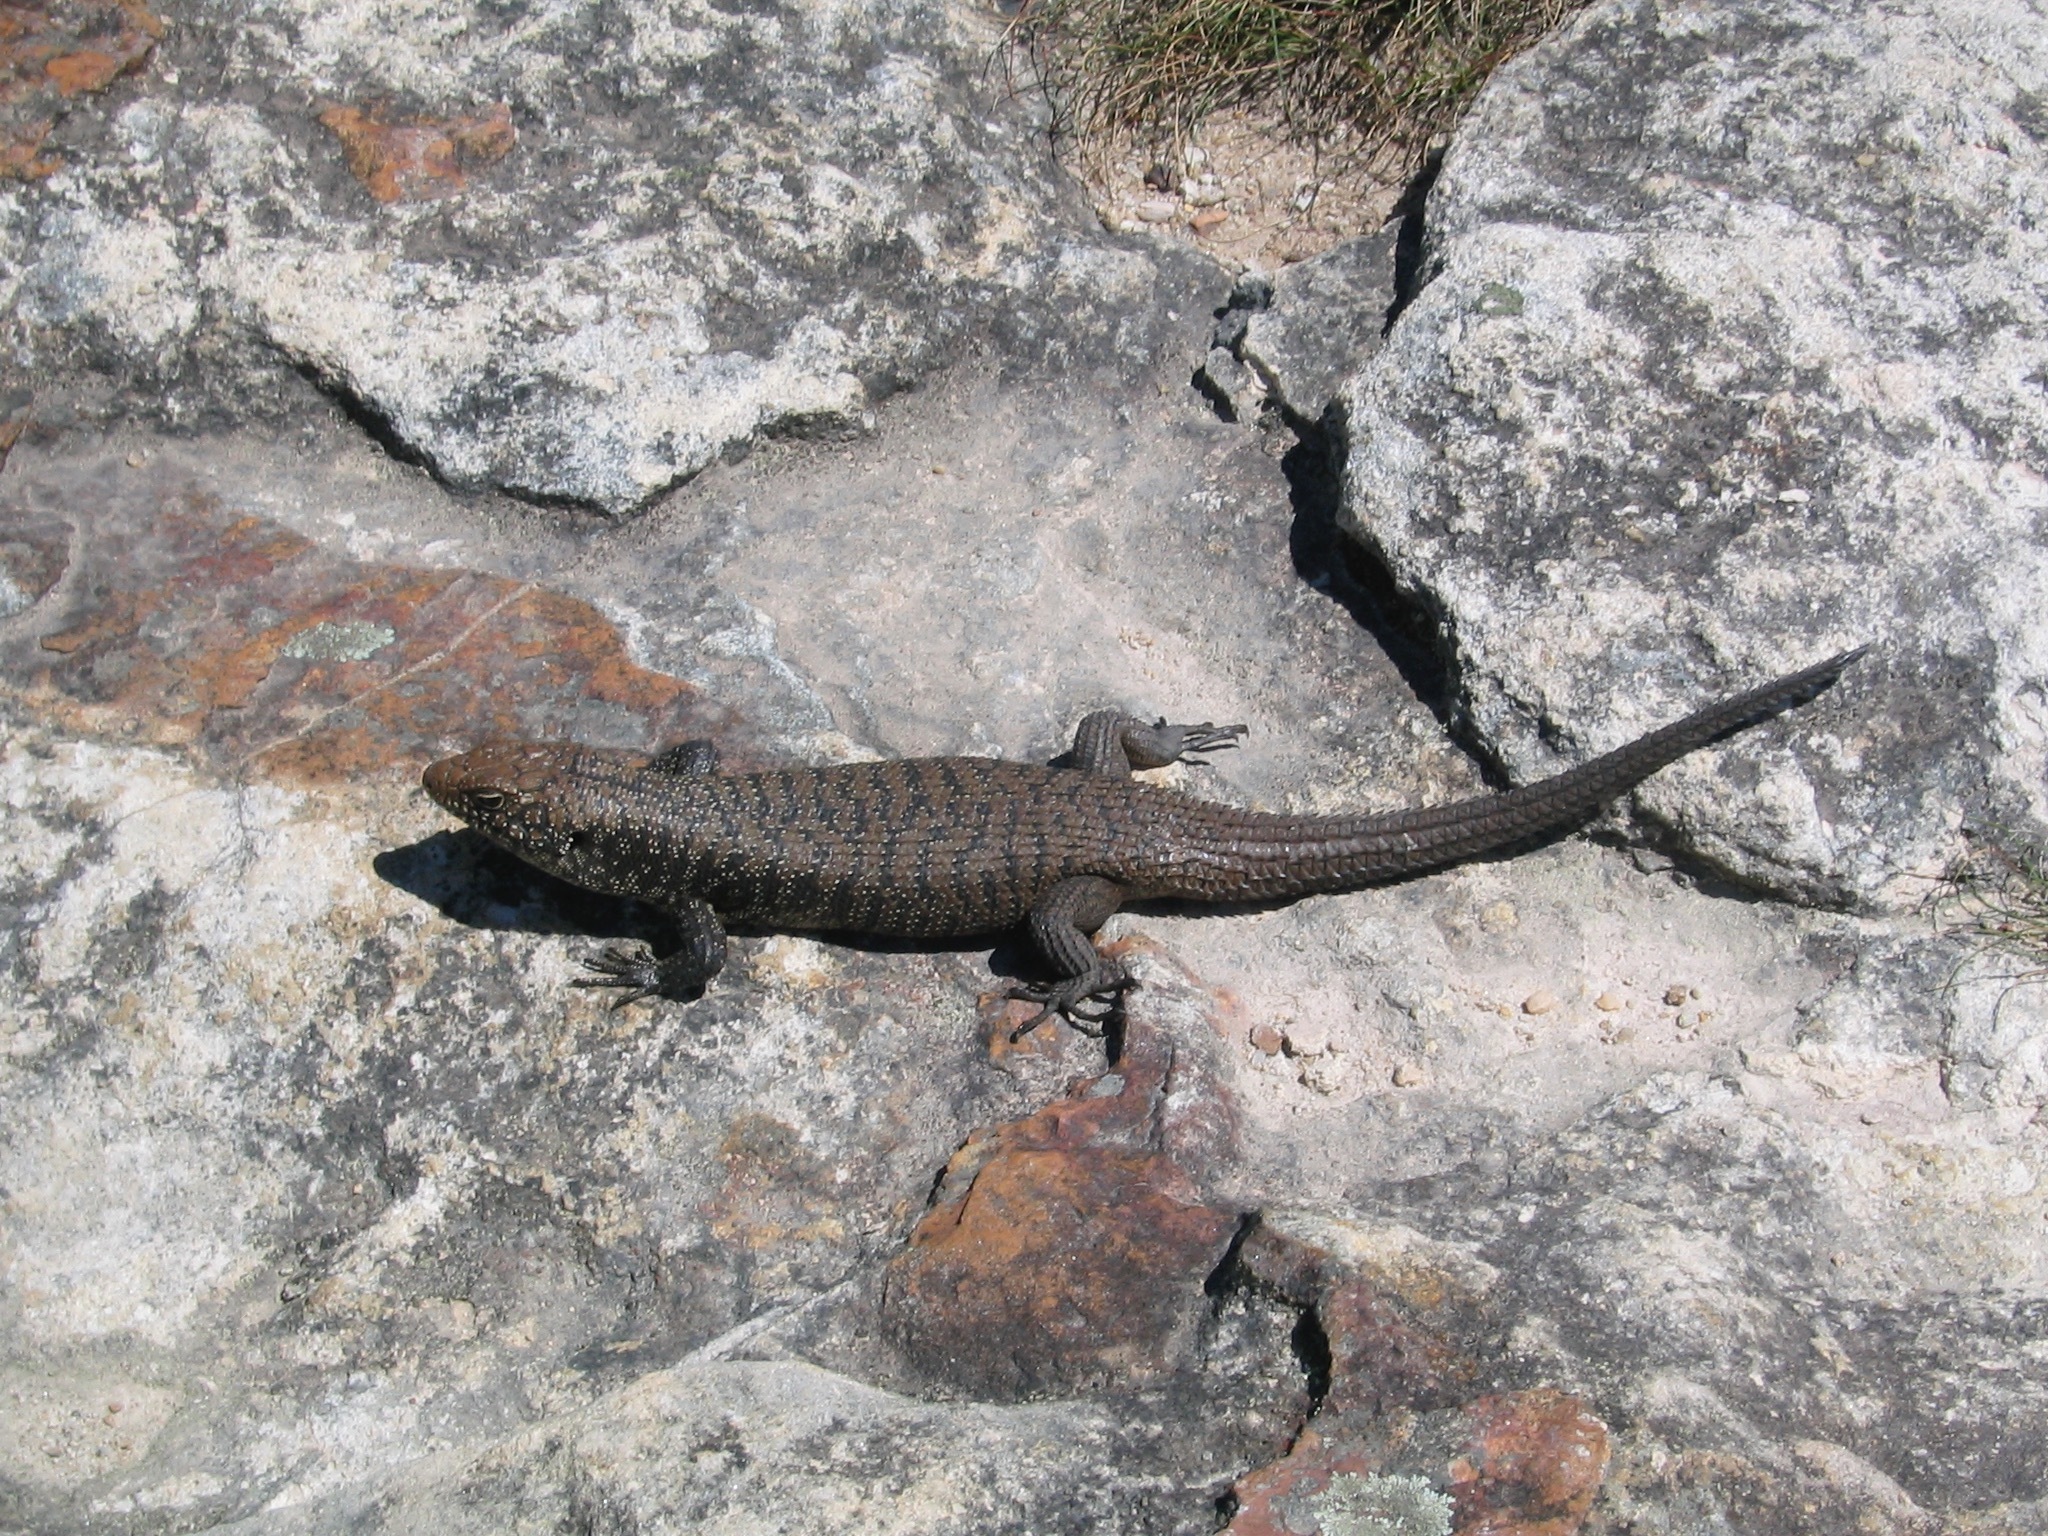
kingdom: Animalia
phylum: Chordata
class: Squamata
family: Scincidae
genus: Egernia
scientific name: Egernia cunninghami
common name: Cunningham's skink
